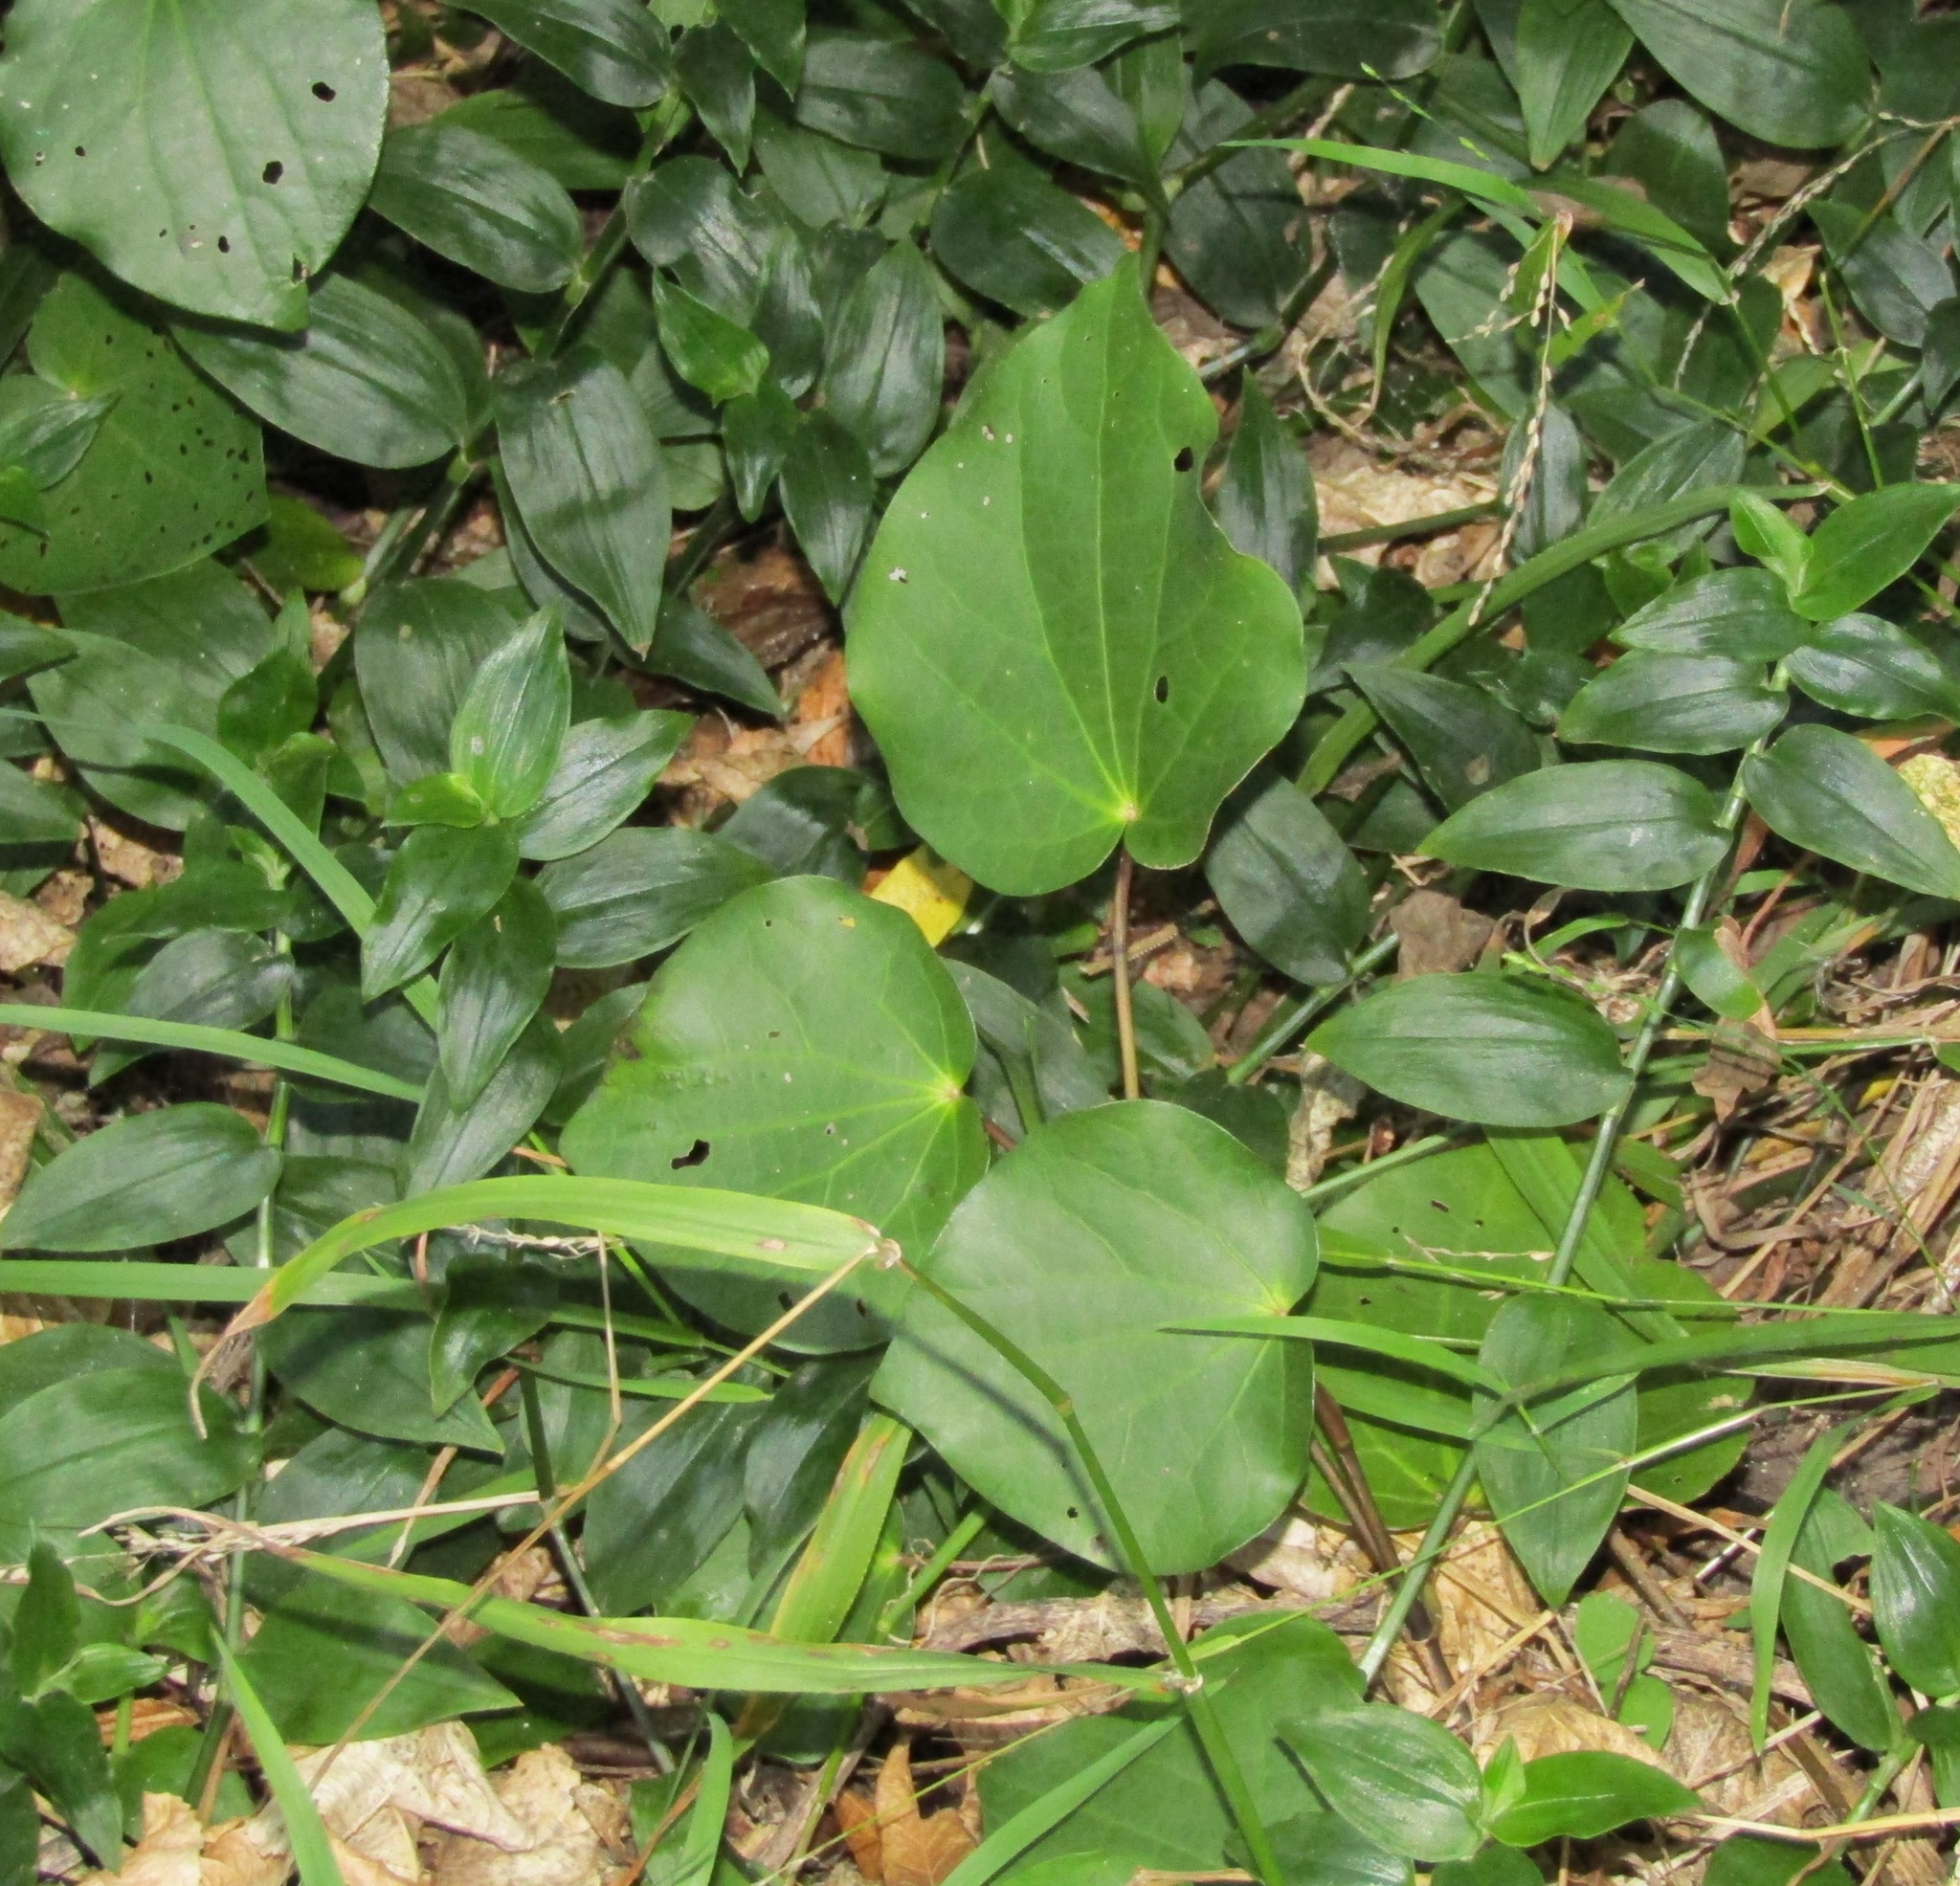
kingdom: Plantae
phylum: Tracheophyta
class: Magnoliopsida
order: Piperales
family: Piperaceae
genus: Macropiper
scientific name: Macropiper excelsum
